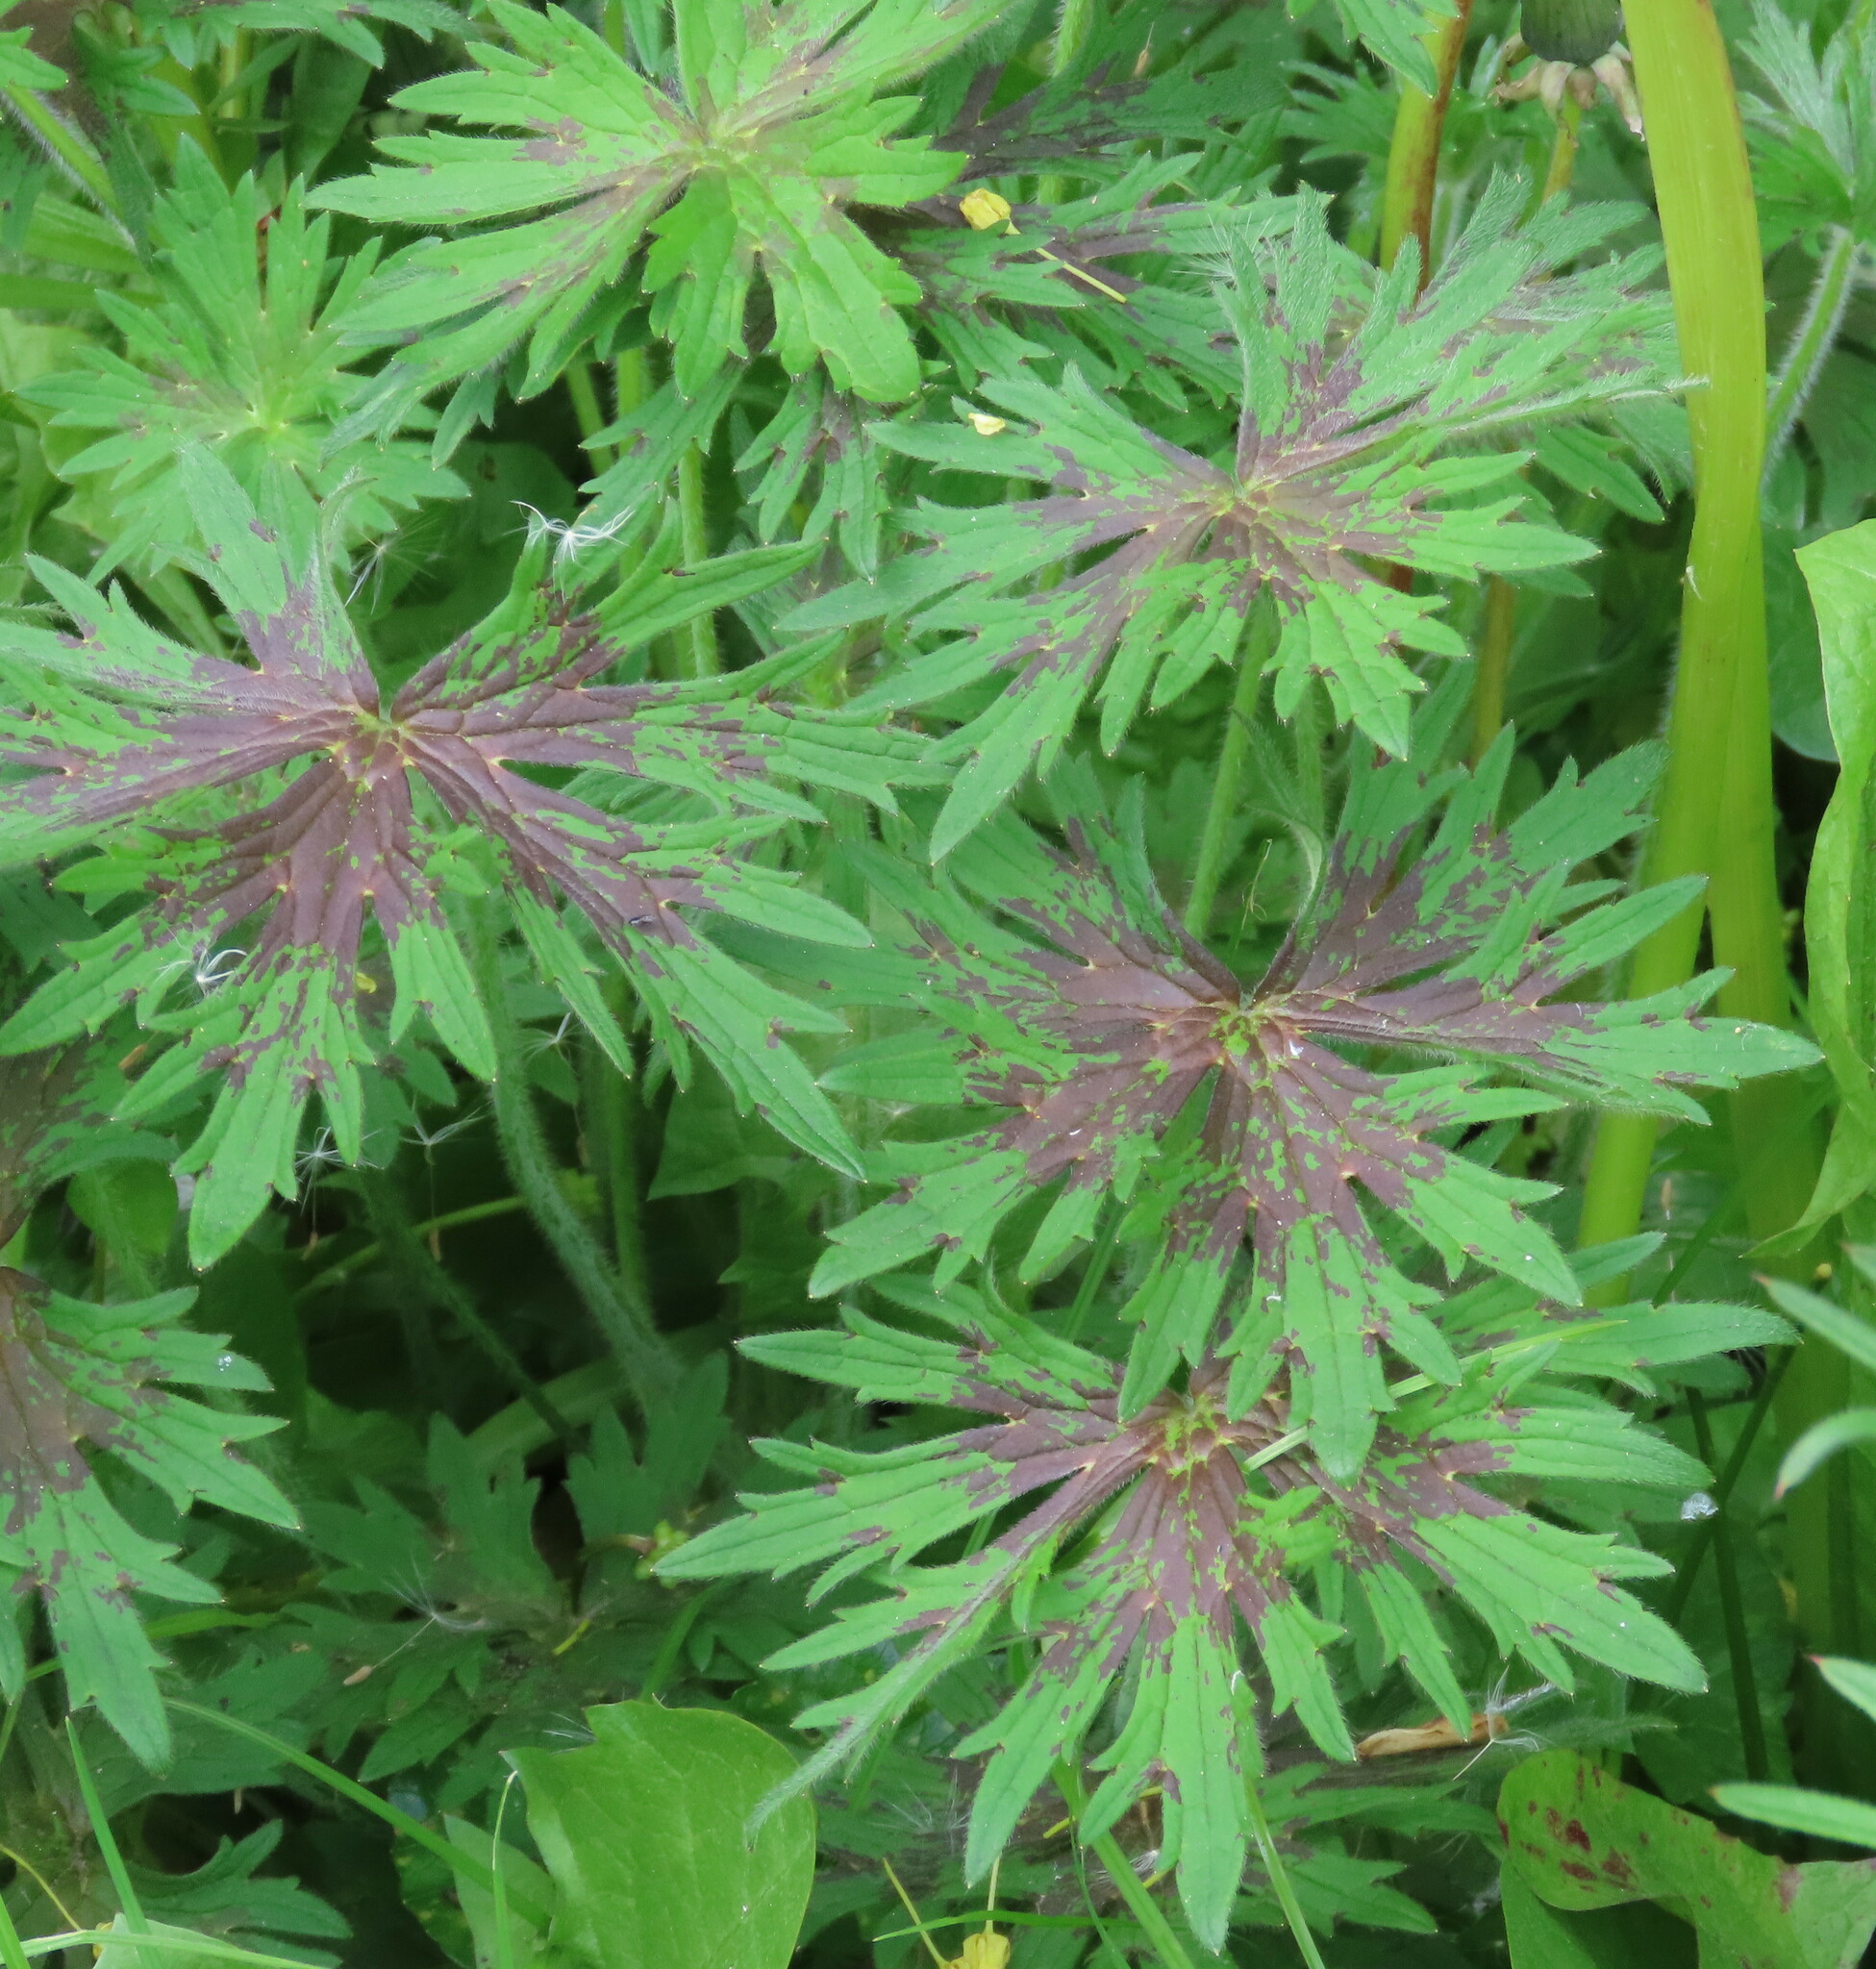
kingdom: Plantae
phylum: Tracheophyta
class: Magnoliopsida
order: Geraniales
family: Geraniaceae
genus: Geranium
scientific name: Geranium pratense
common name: Meadow crane's-bill
